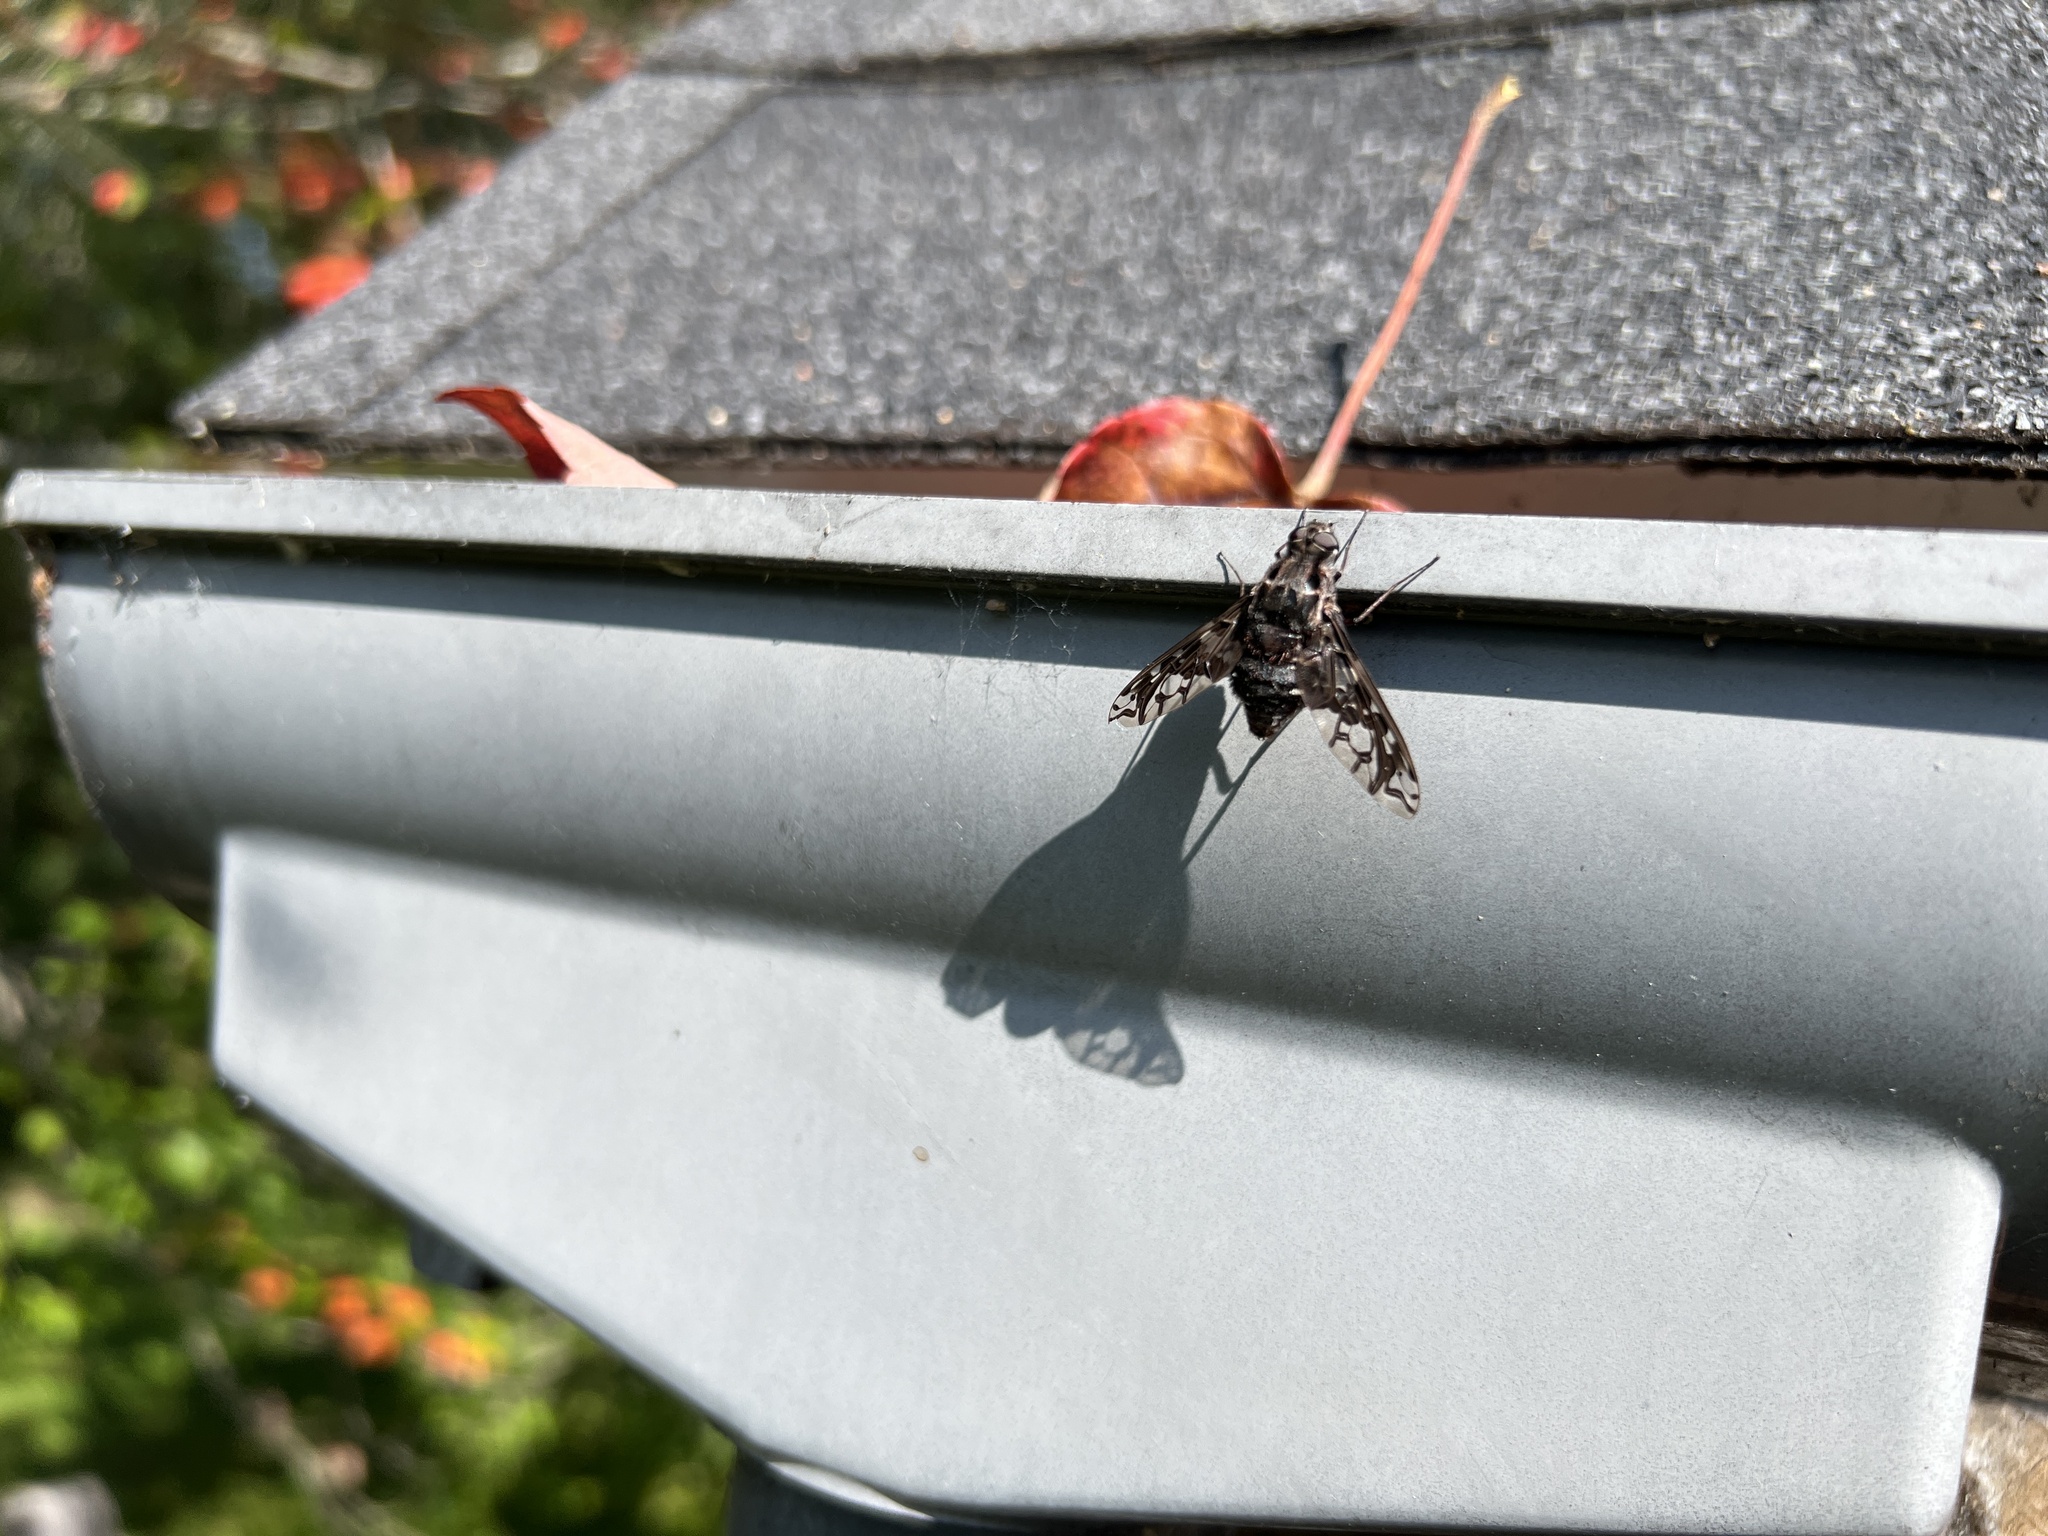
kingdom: Animalia
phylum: Arthropoda
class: Insecta
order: Diptera
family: Bombyliidae
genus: Xenox
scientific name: Xenox tigrinus
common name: Tiger bee fly
